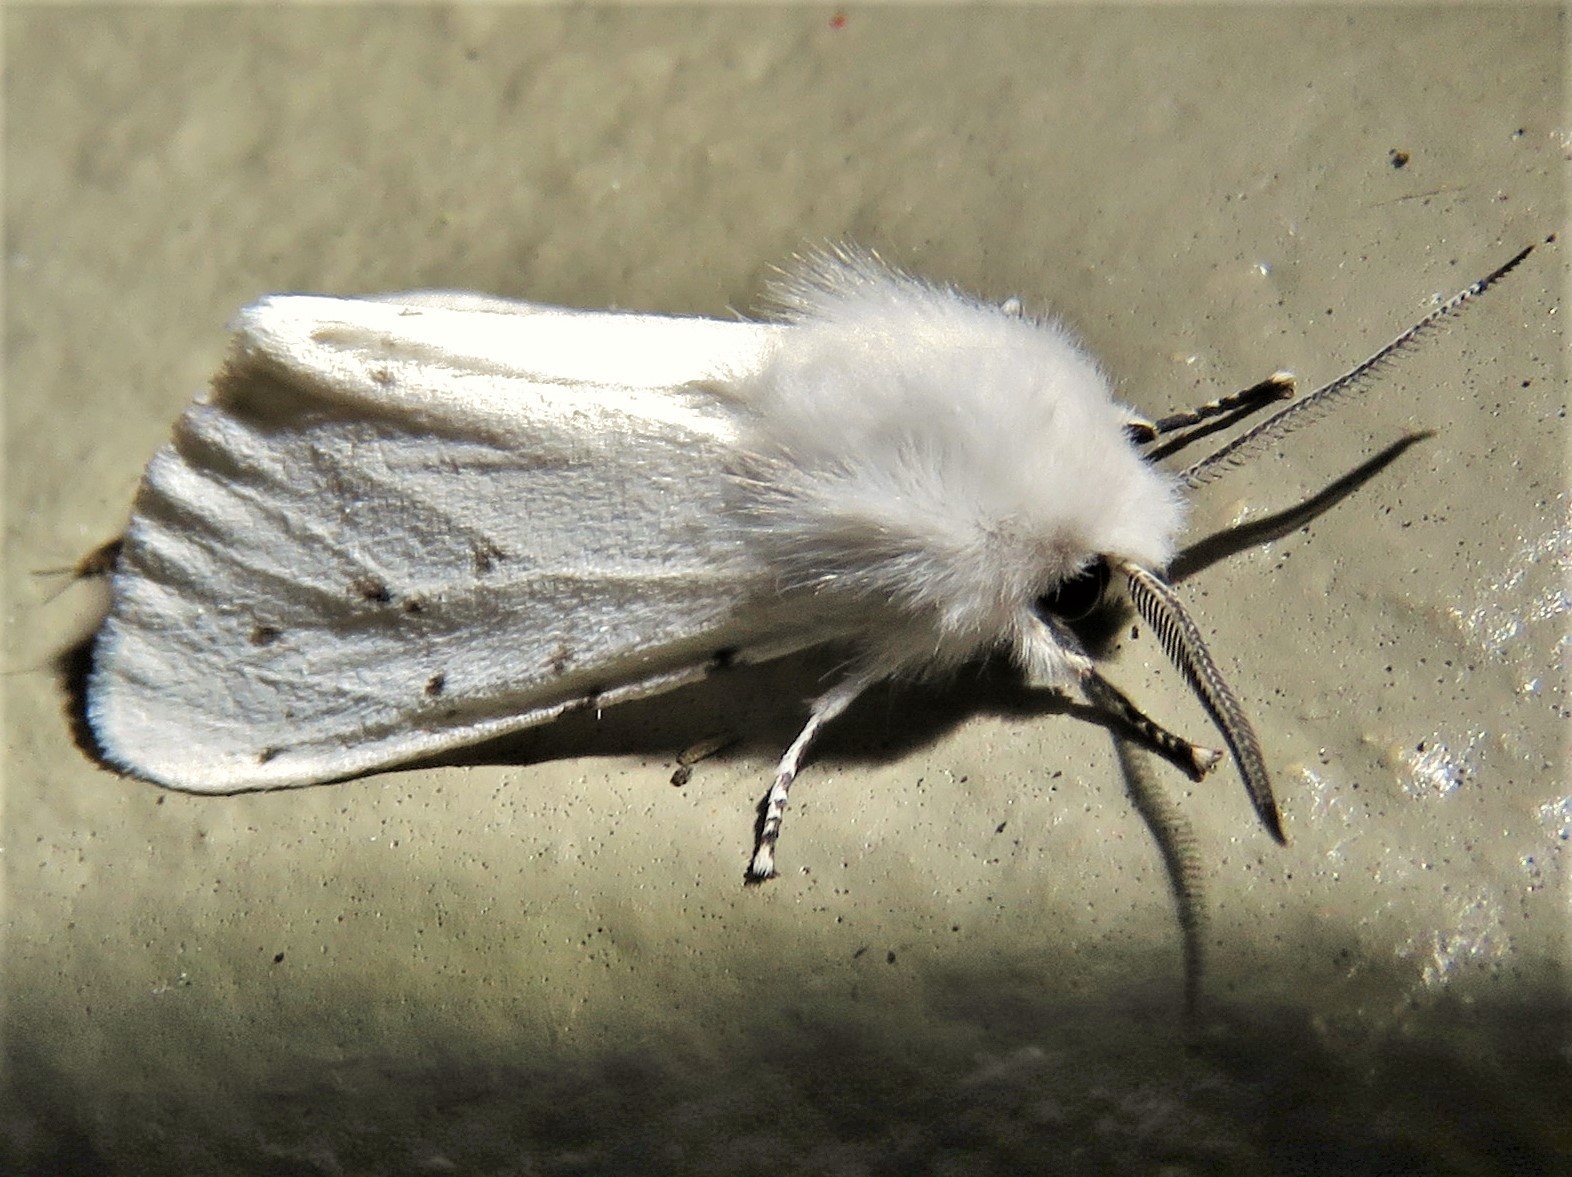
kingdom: Animalia
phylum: Arthropoda
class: Insecta
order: Lepidoptera
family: Erebidae
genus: Hyphantria
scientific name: Hyphantria cunea
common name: American white moth
